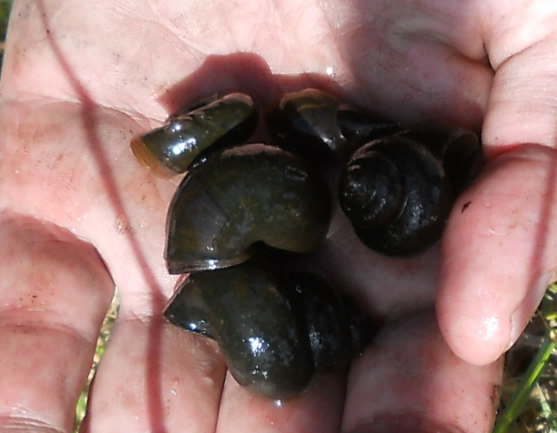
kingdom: Animalia
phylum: Mollusca
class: Gastropoda
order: Architaenioglossa
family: Viviparidae
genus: Viviparus
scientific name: Viviparus contectus
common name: Lister's river snail
